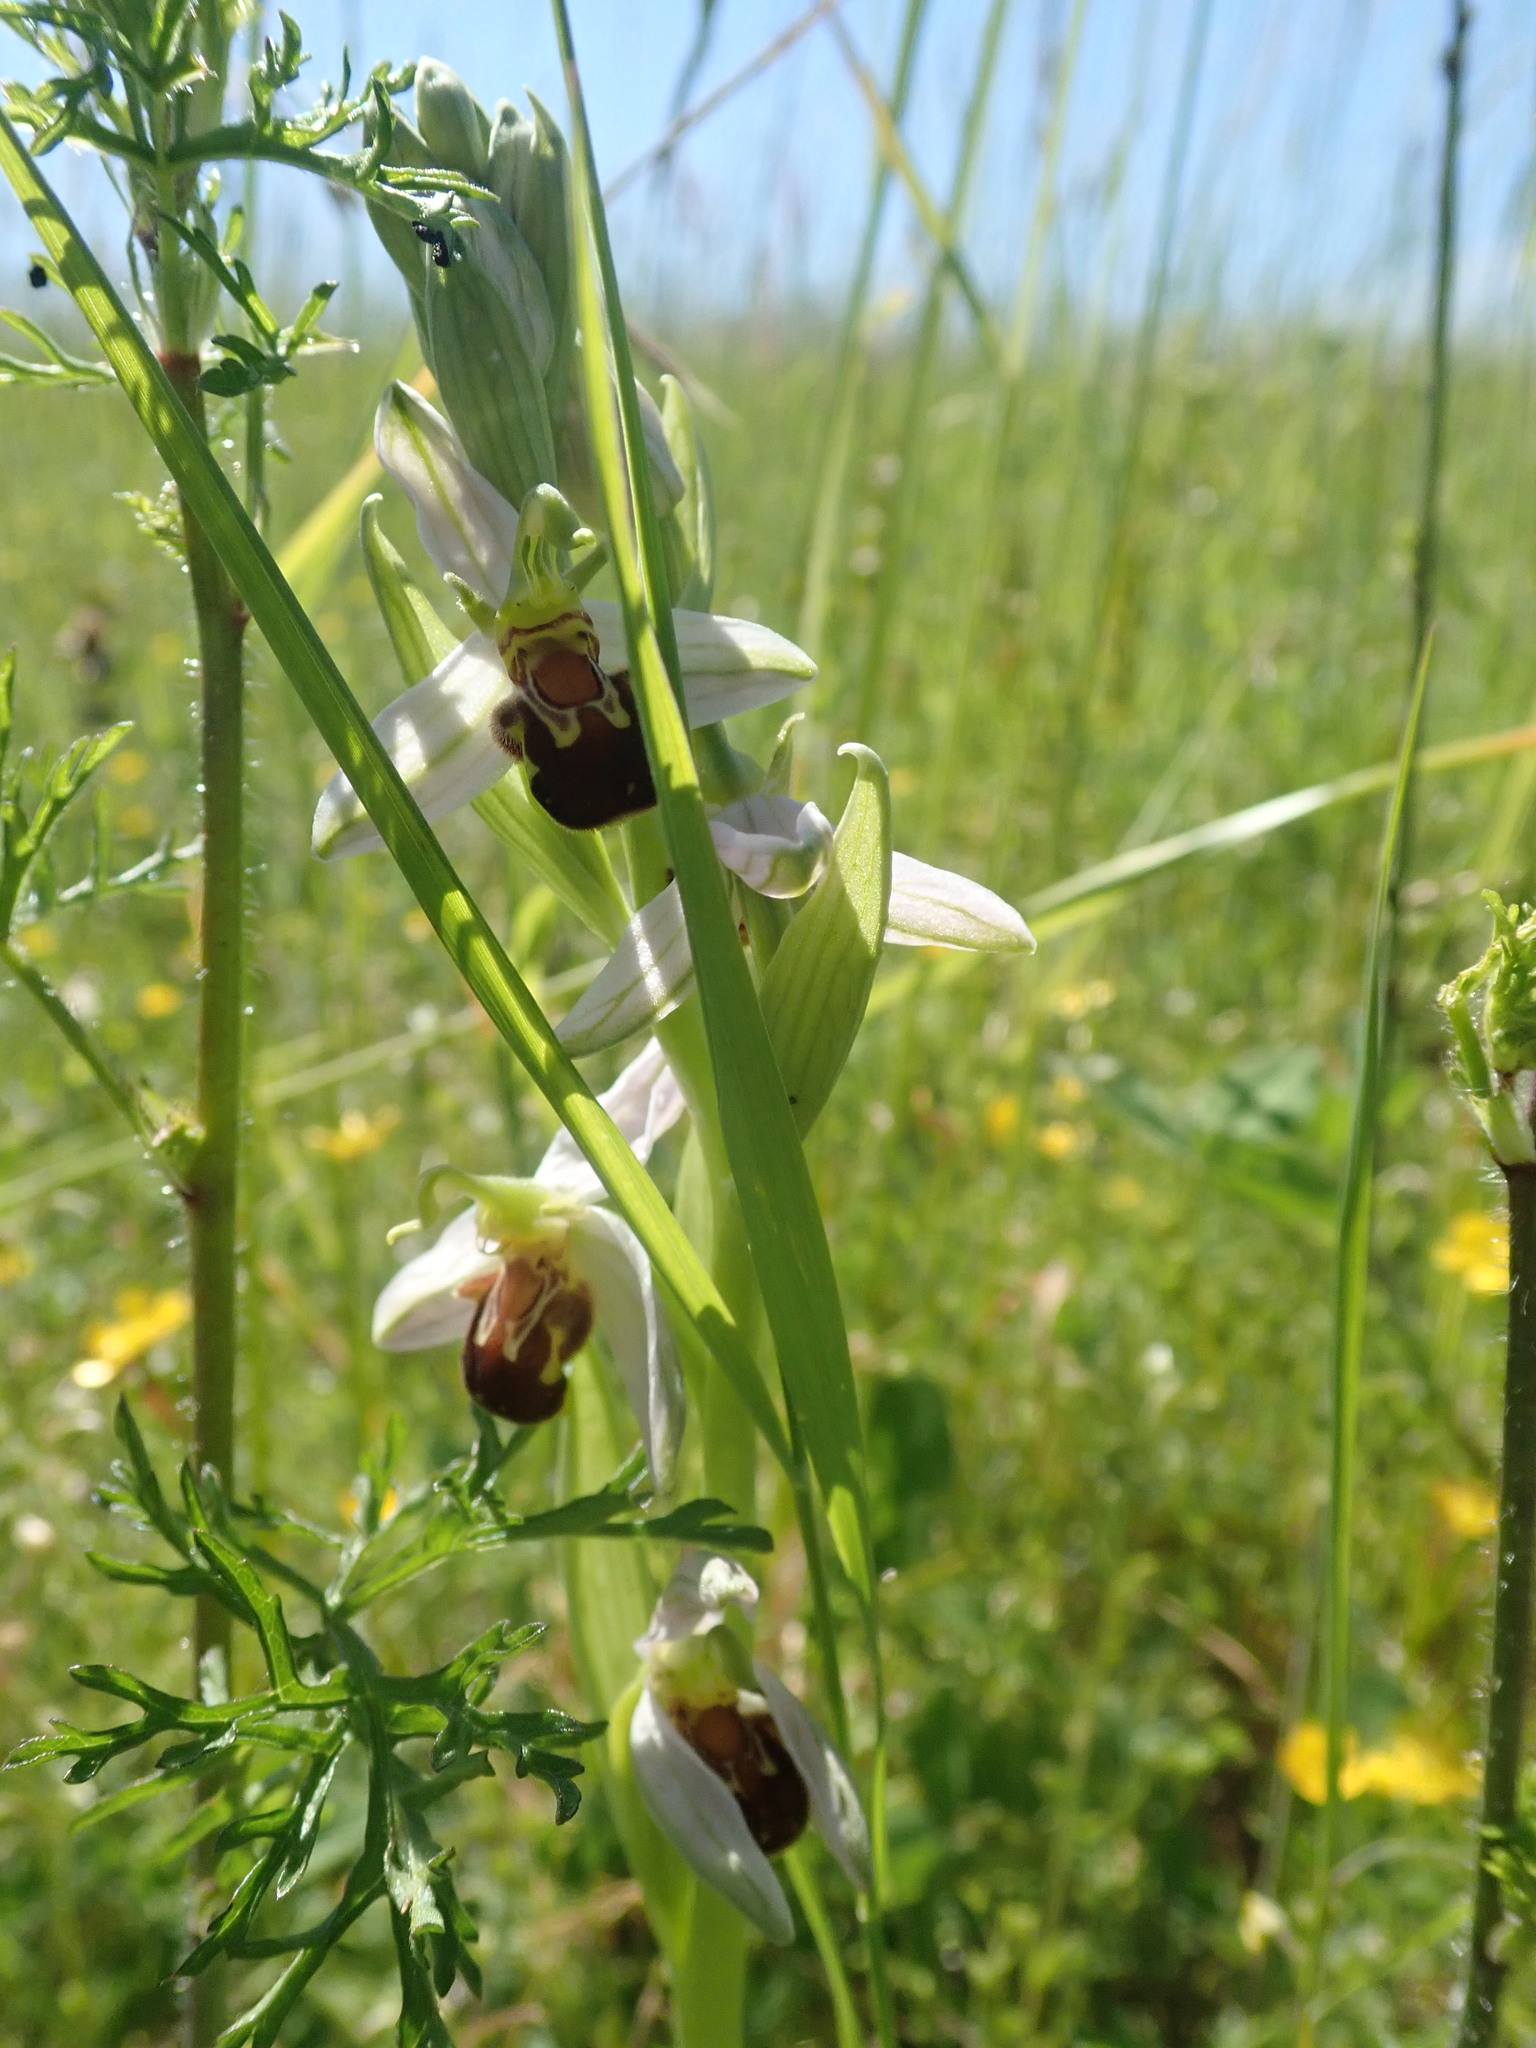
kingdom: Plantae
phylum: Tracheophyta
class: Liliopsida
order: Asparagales
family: Orchidaceae
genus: Ophrys
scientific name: Ophrys apifera
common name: Bee orchid
